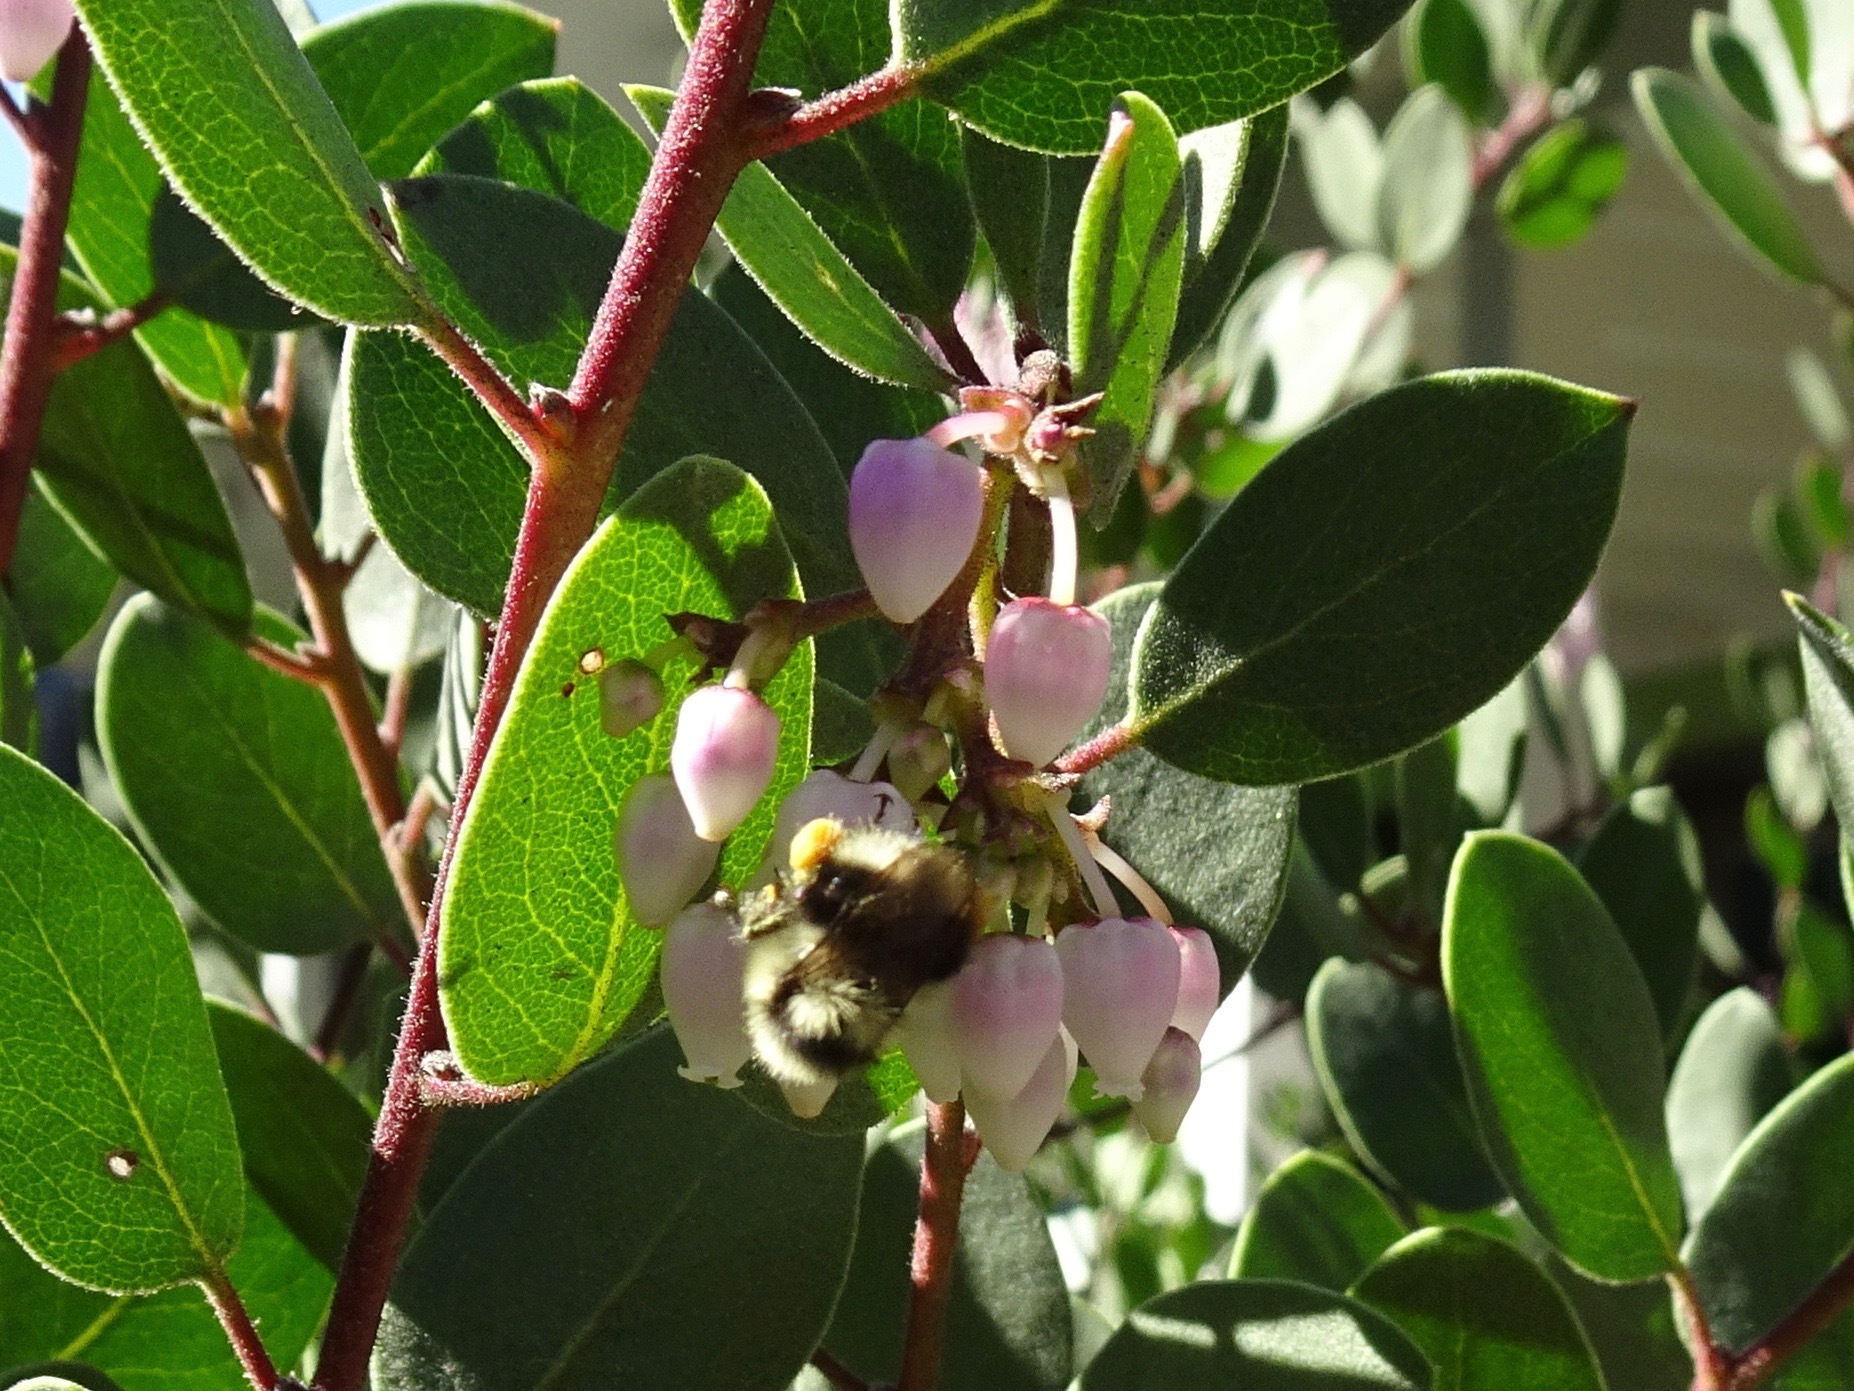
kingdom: Animalia
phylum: Arthropoda
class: Insecta
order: Hymenoptera
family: Apidae
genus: Bombus
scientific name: Bombus melanopygus
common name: Black tail bumble bee
